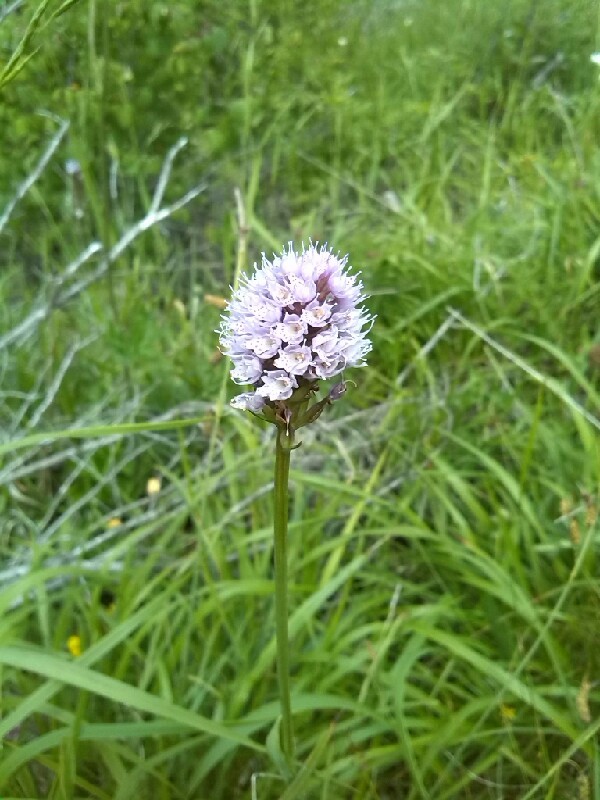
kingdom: Plantae
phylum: Tracheophyta
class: Liliopsida
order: Asparagales
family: Orchidaceae
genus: Traunsteinera
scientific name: Traunsteinera globosa
